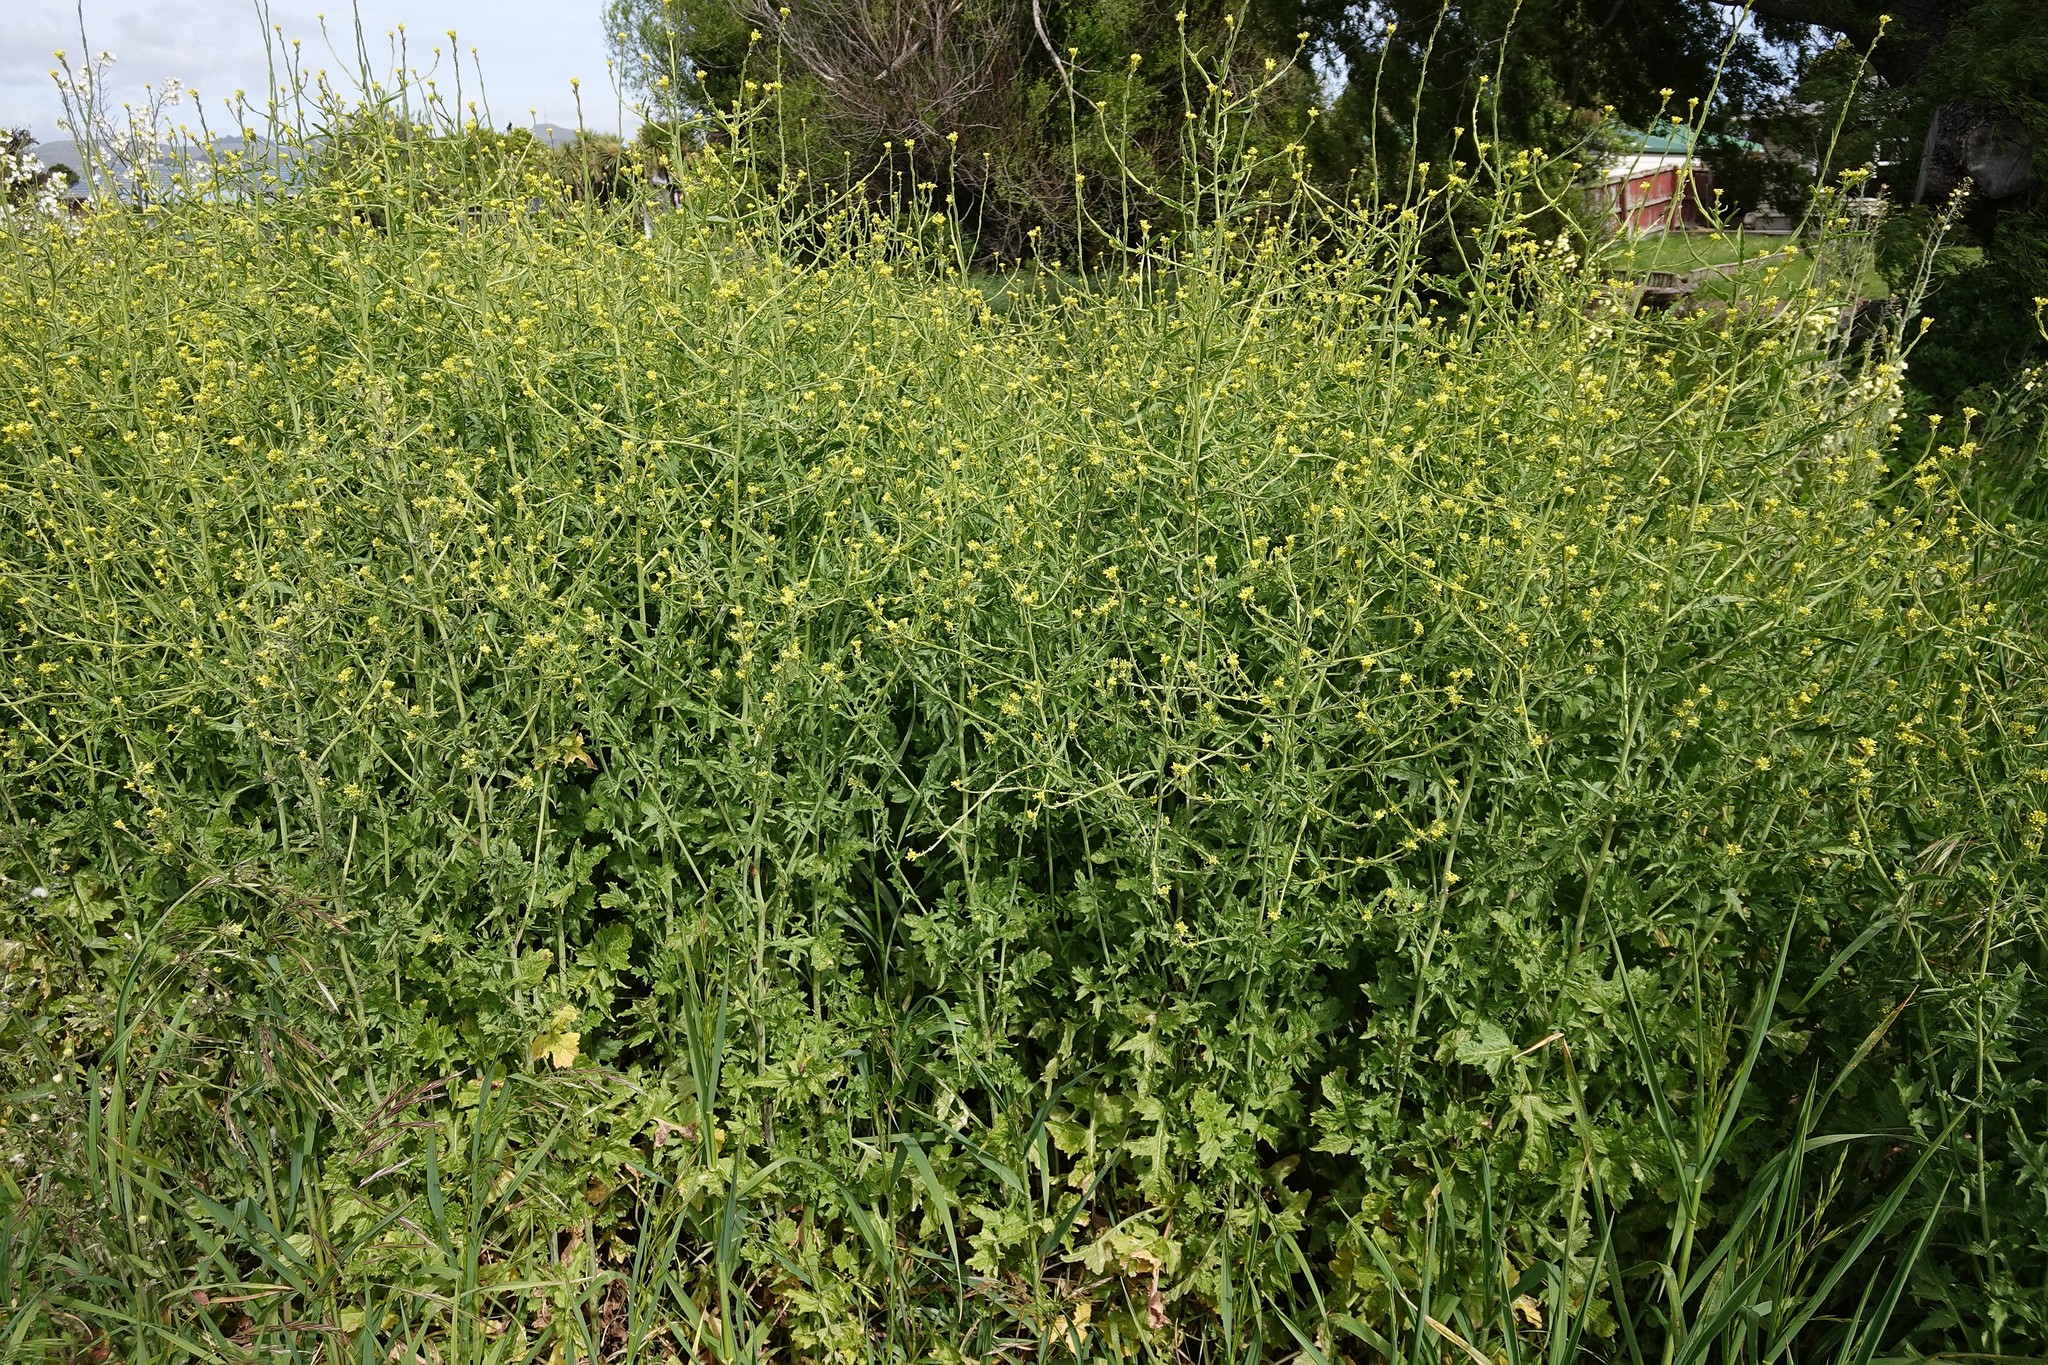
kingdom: Plantae
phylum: Tracheophyta
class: Magnoliopsida
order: Brassicales
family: Brassicaceae
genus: Sisymbrium
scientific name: Sisymbrium orientale
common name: Eastern rocket
